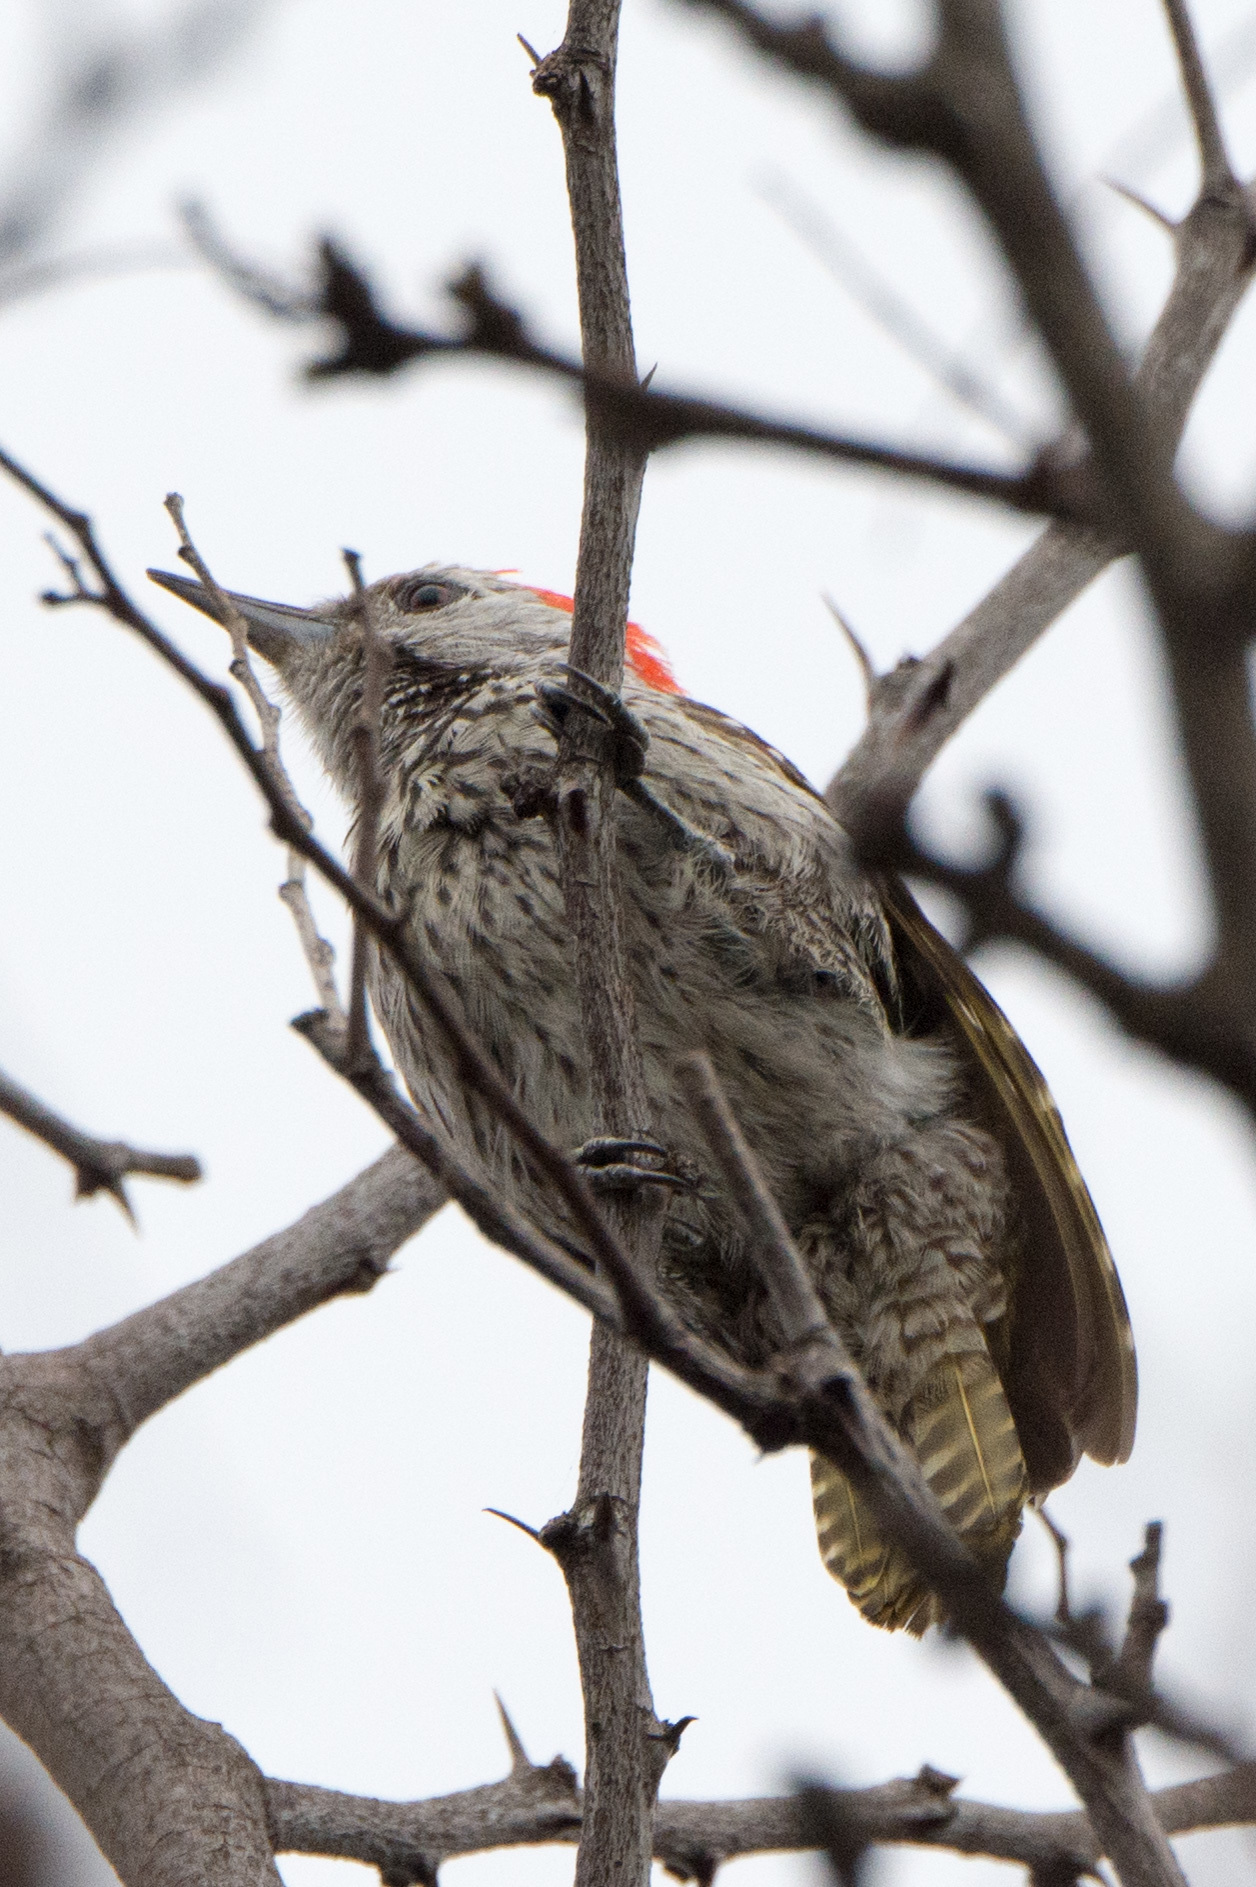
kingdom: Animalia
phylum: Chordata
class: Aves
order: Piciformes
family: Picidae
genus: Dendropicos
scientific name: Dendropicos fuscescens
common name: Cardinal woodpecker
